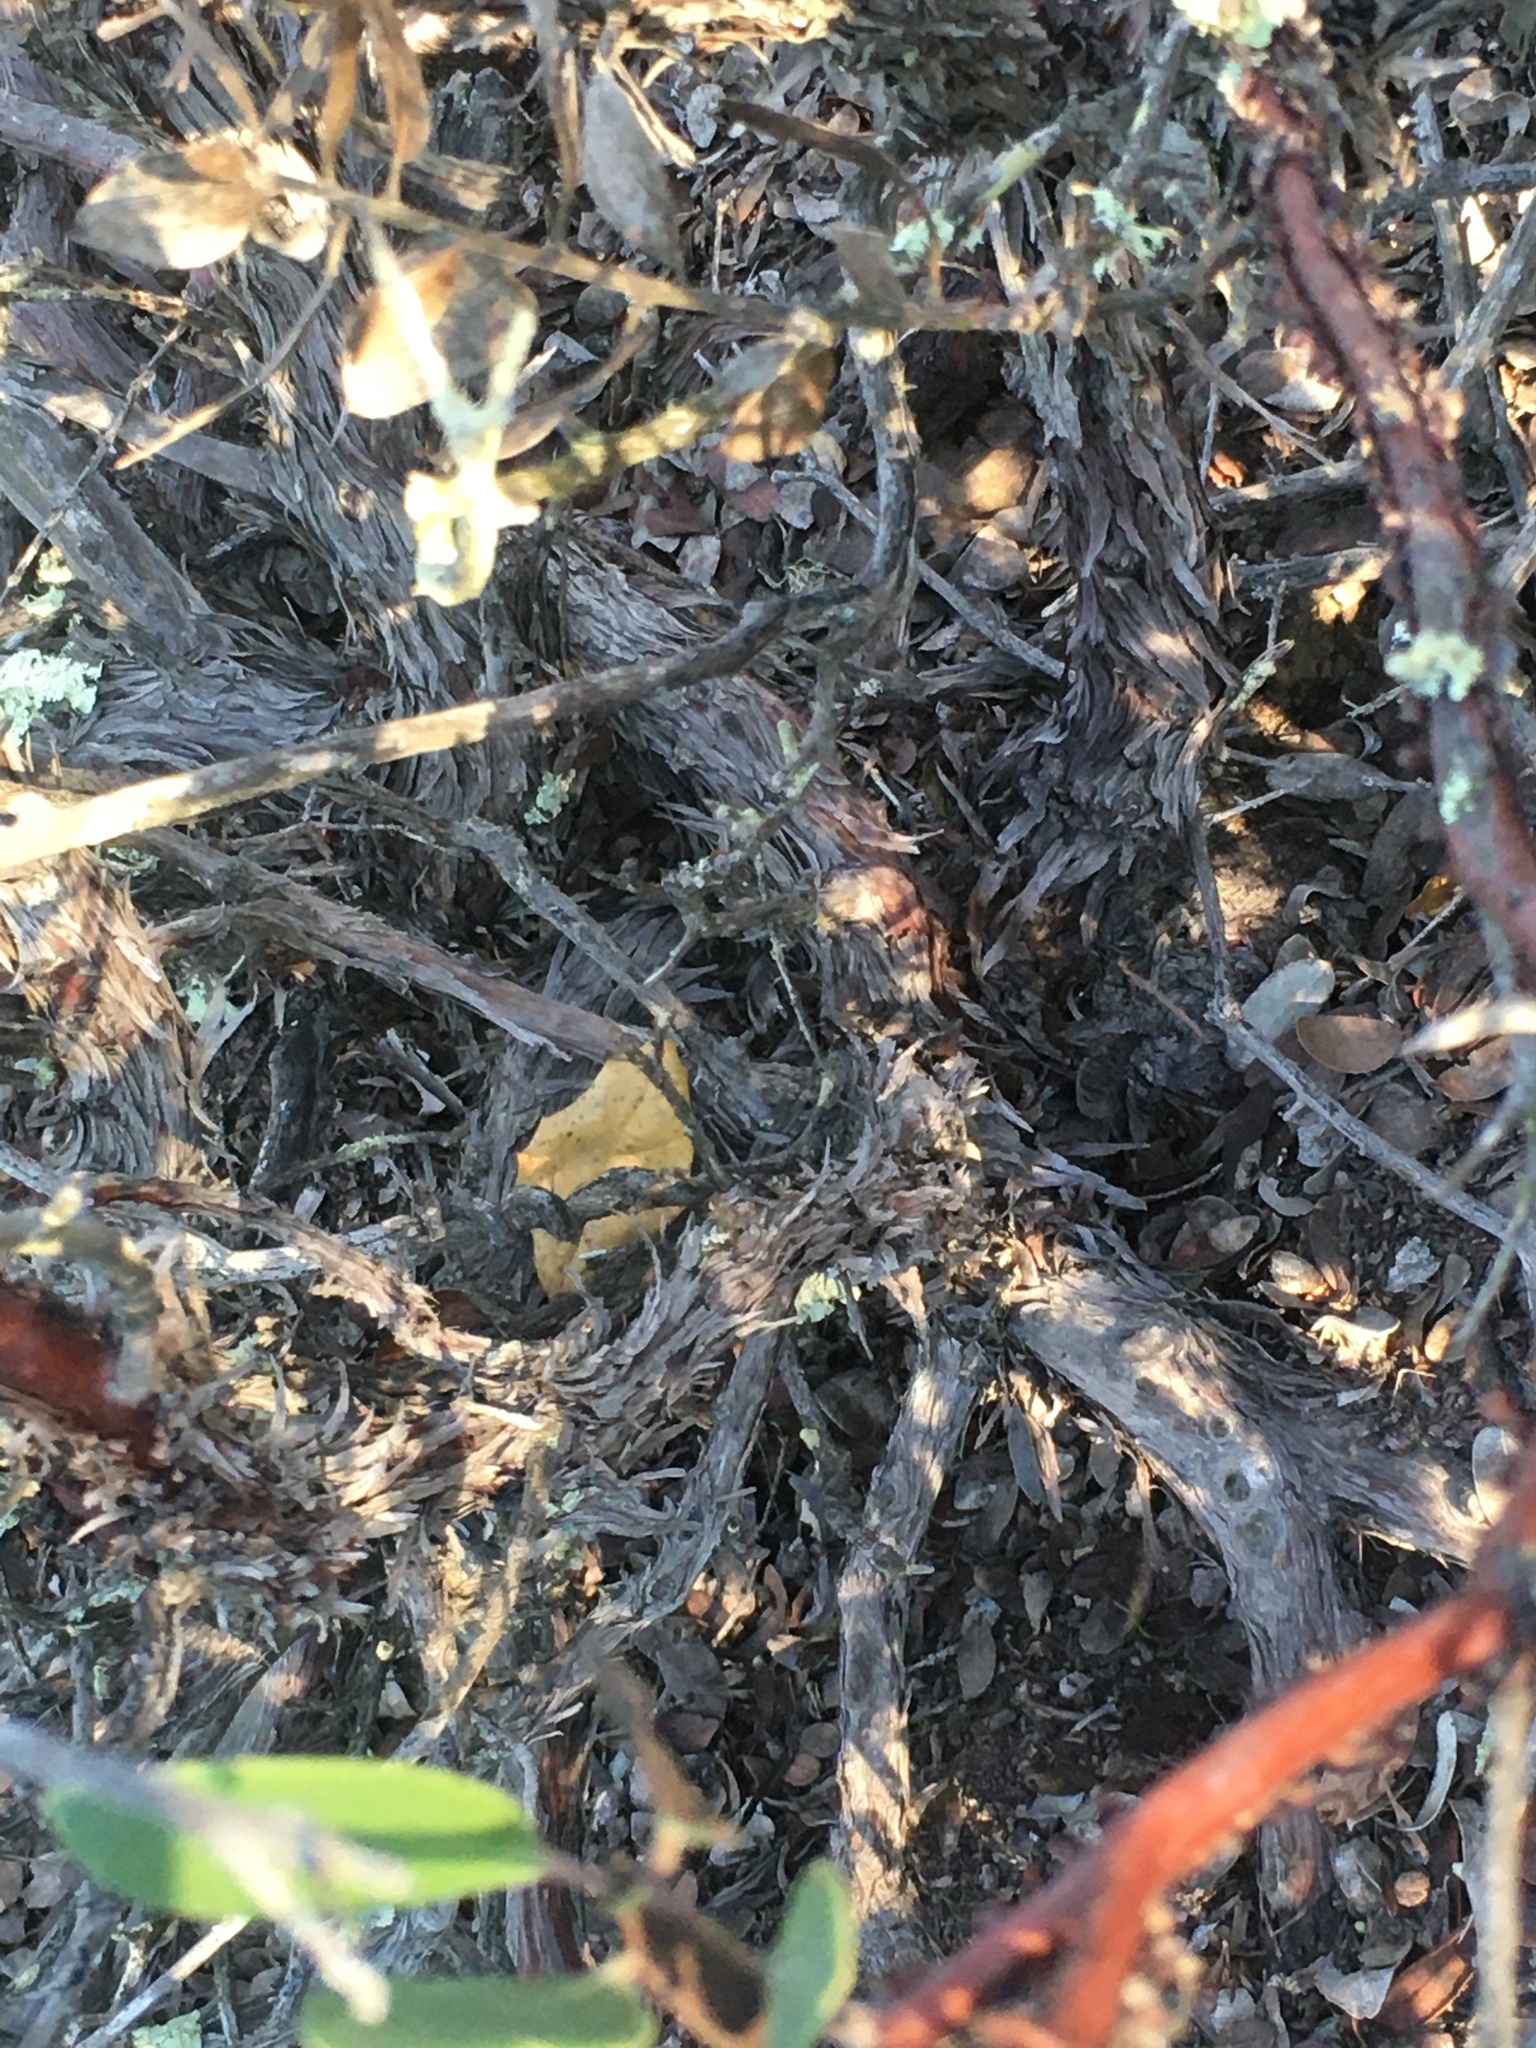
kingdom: Plantae
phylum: Tracheophyta
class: Magnoliopsida
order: Ericales
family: Ericaceae
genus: Arctostaphylos
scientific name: Arctostaphylos rudis
